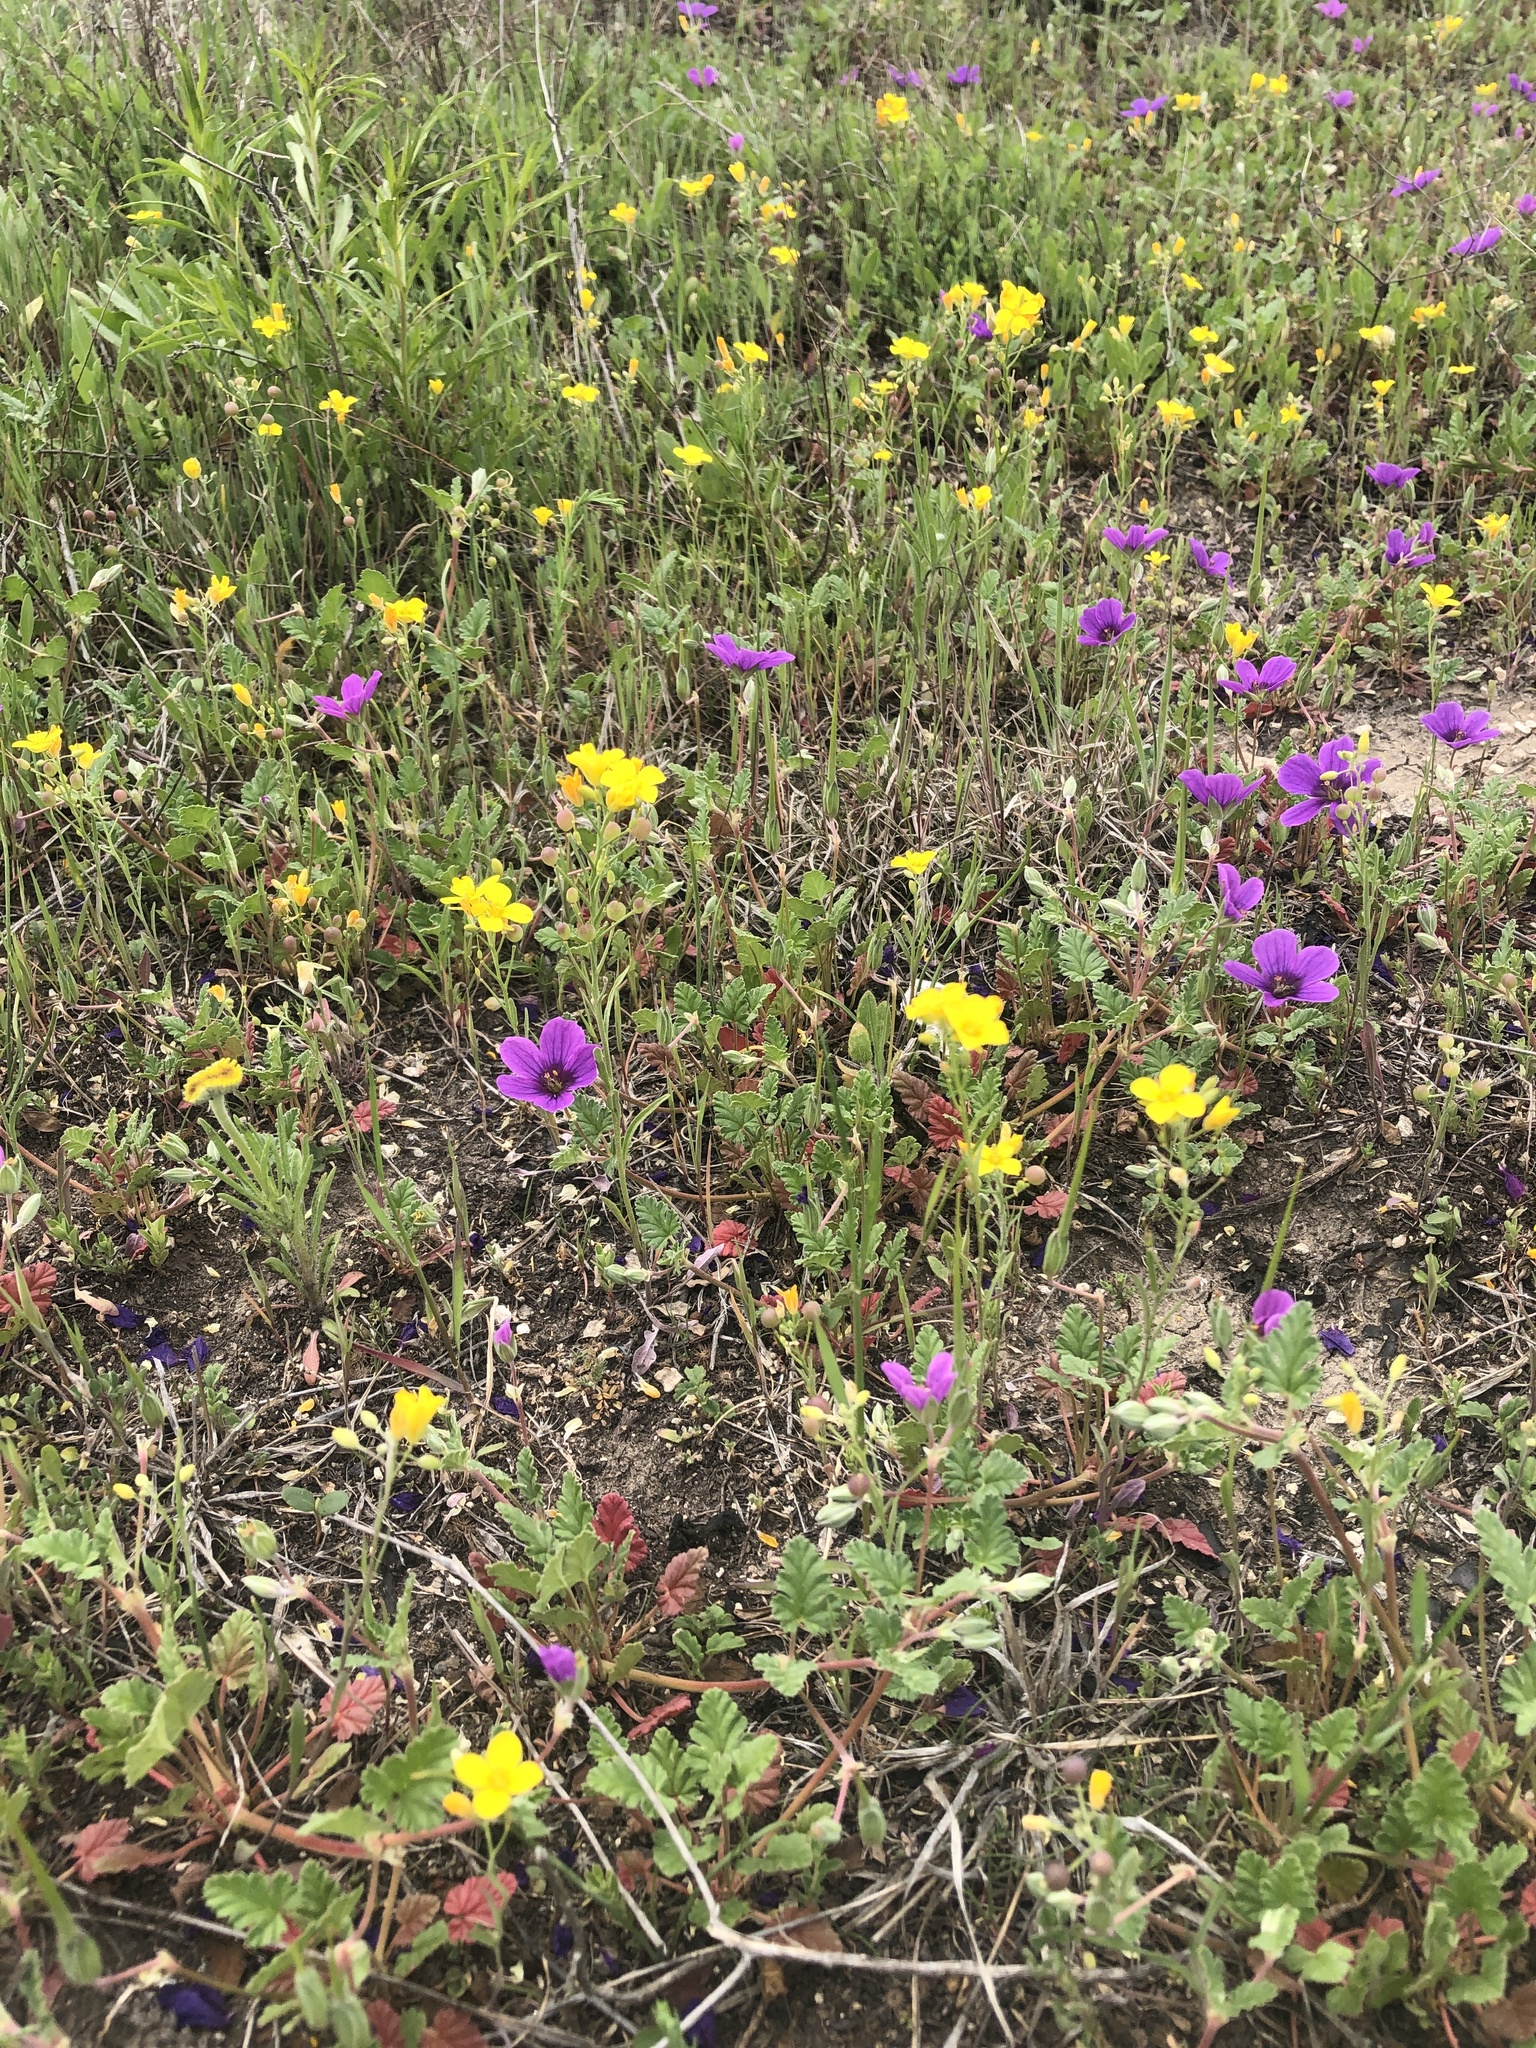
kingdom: Plantae
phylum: Tracheophyta
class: Magnoliopsida
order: Brassicales
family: Brassicaceae
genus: Physaria
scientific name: Physaria gracilis
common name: Spreading bladderpod
